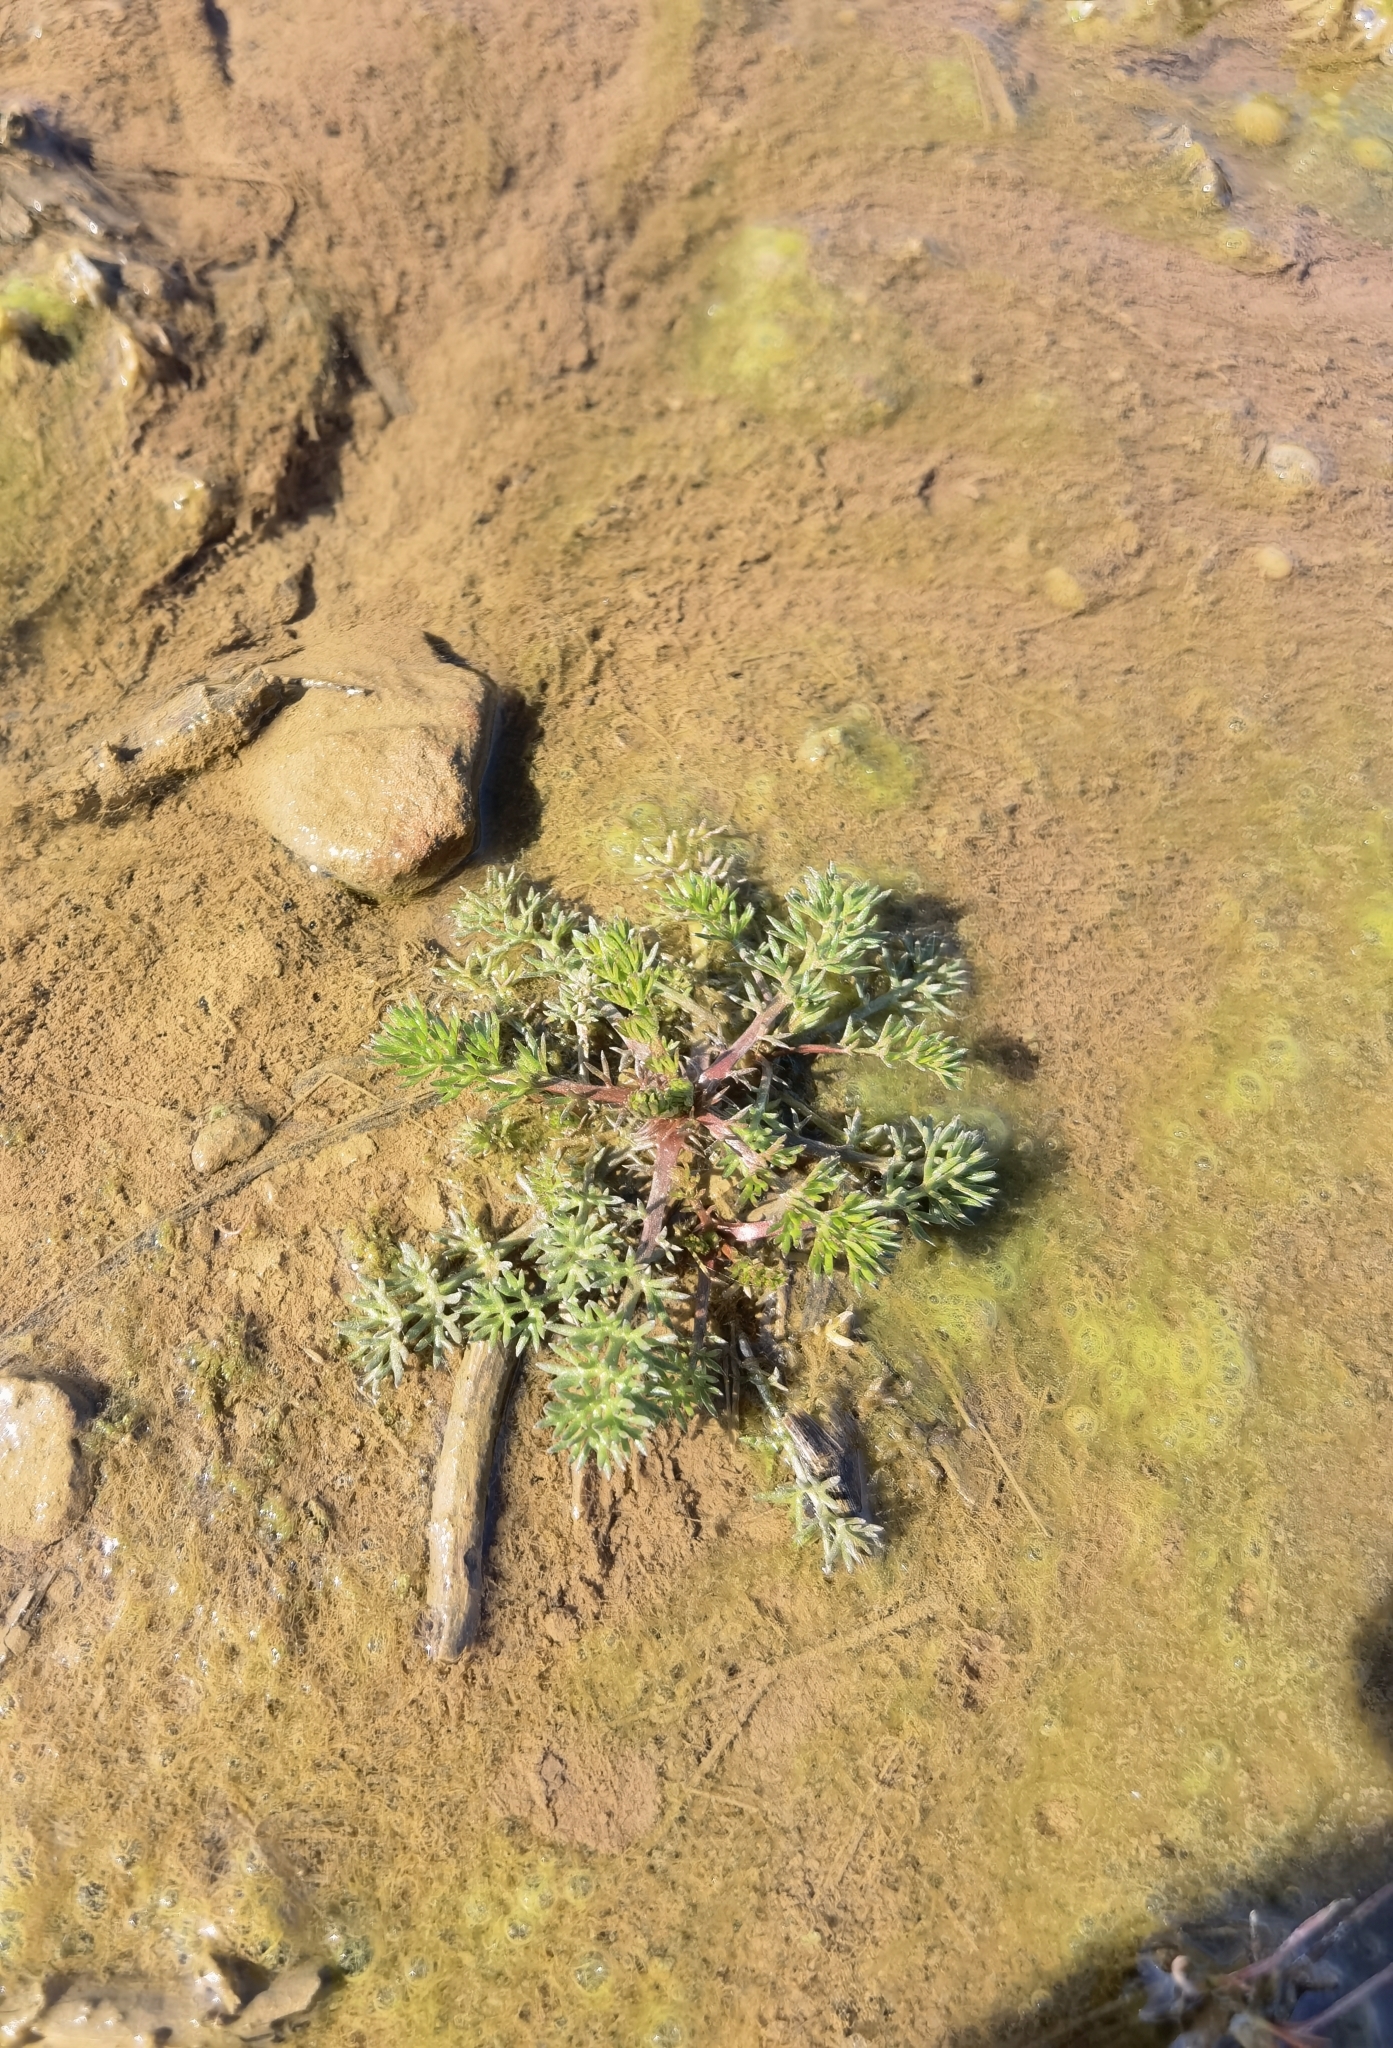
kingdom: Plantae
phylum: Tracheophyta
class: Magnoliopsida
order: Asterales
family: Asteraceae
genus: Matricaria
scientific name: Matricaria discoidea
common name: Disc mayweed
